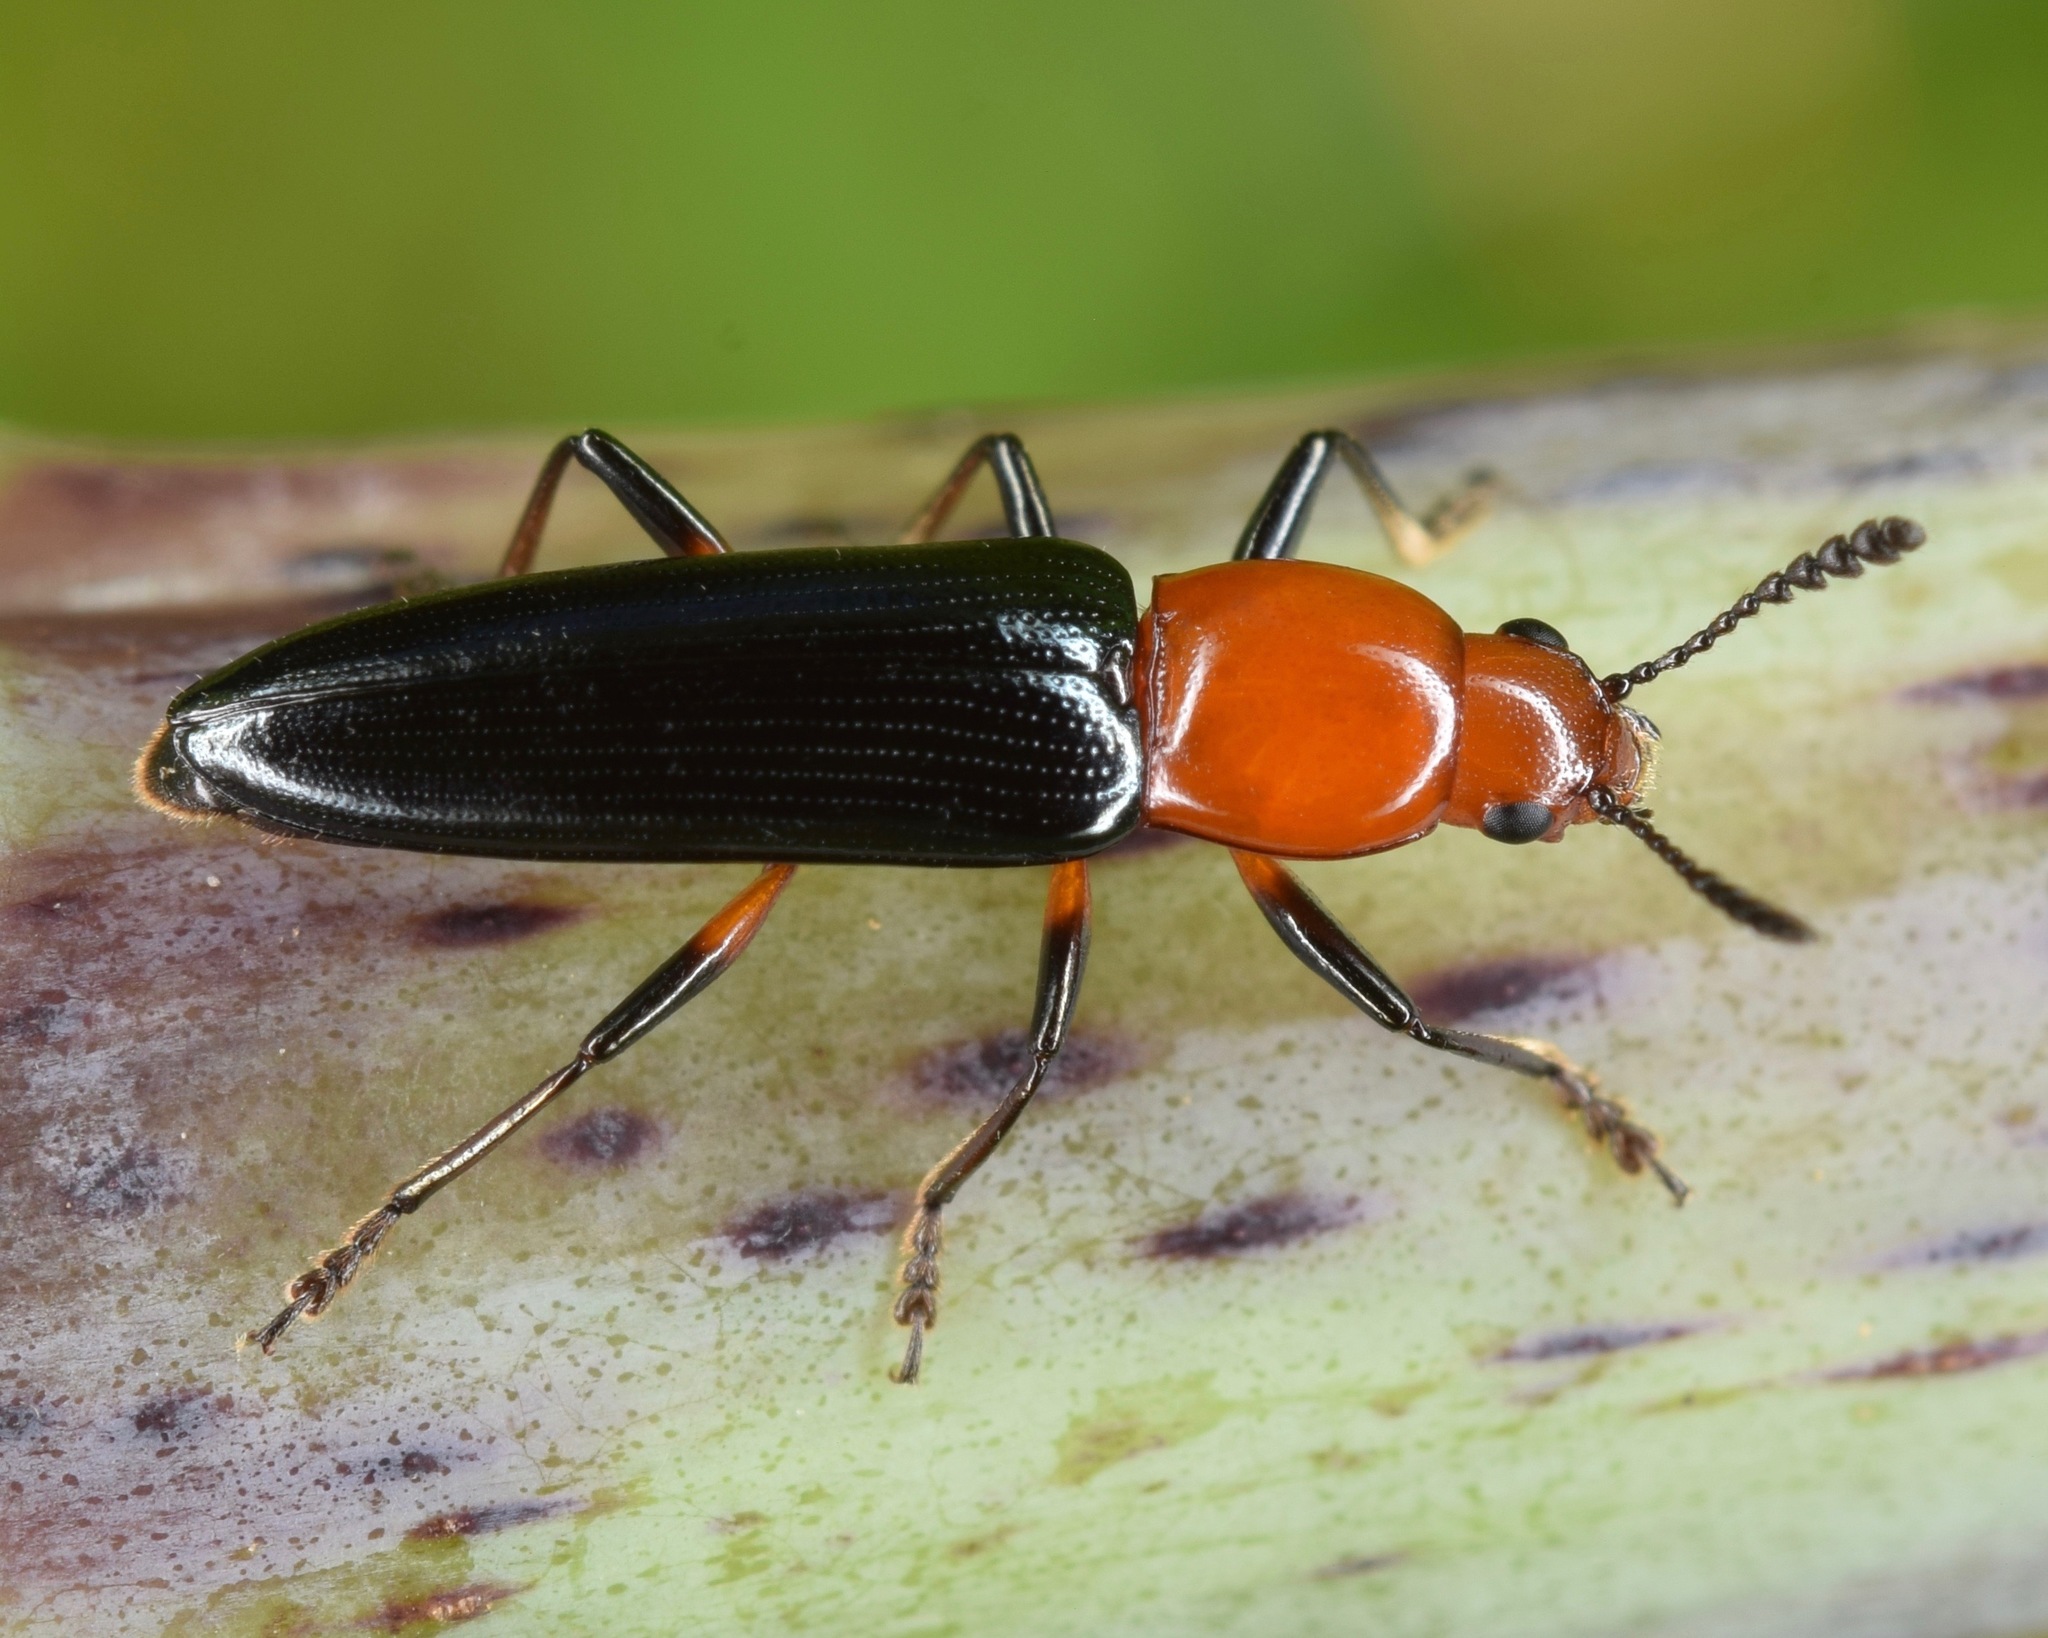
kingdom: Animalia
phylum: Arthropoda
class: Insecta
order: Coleoptera
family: Erotylidae
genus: Languria
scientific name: Languria mozardi
